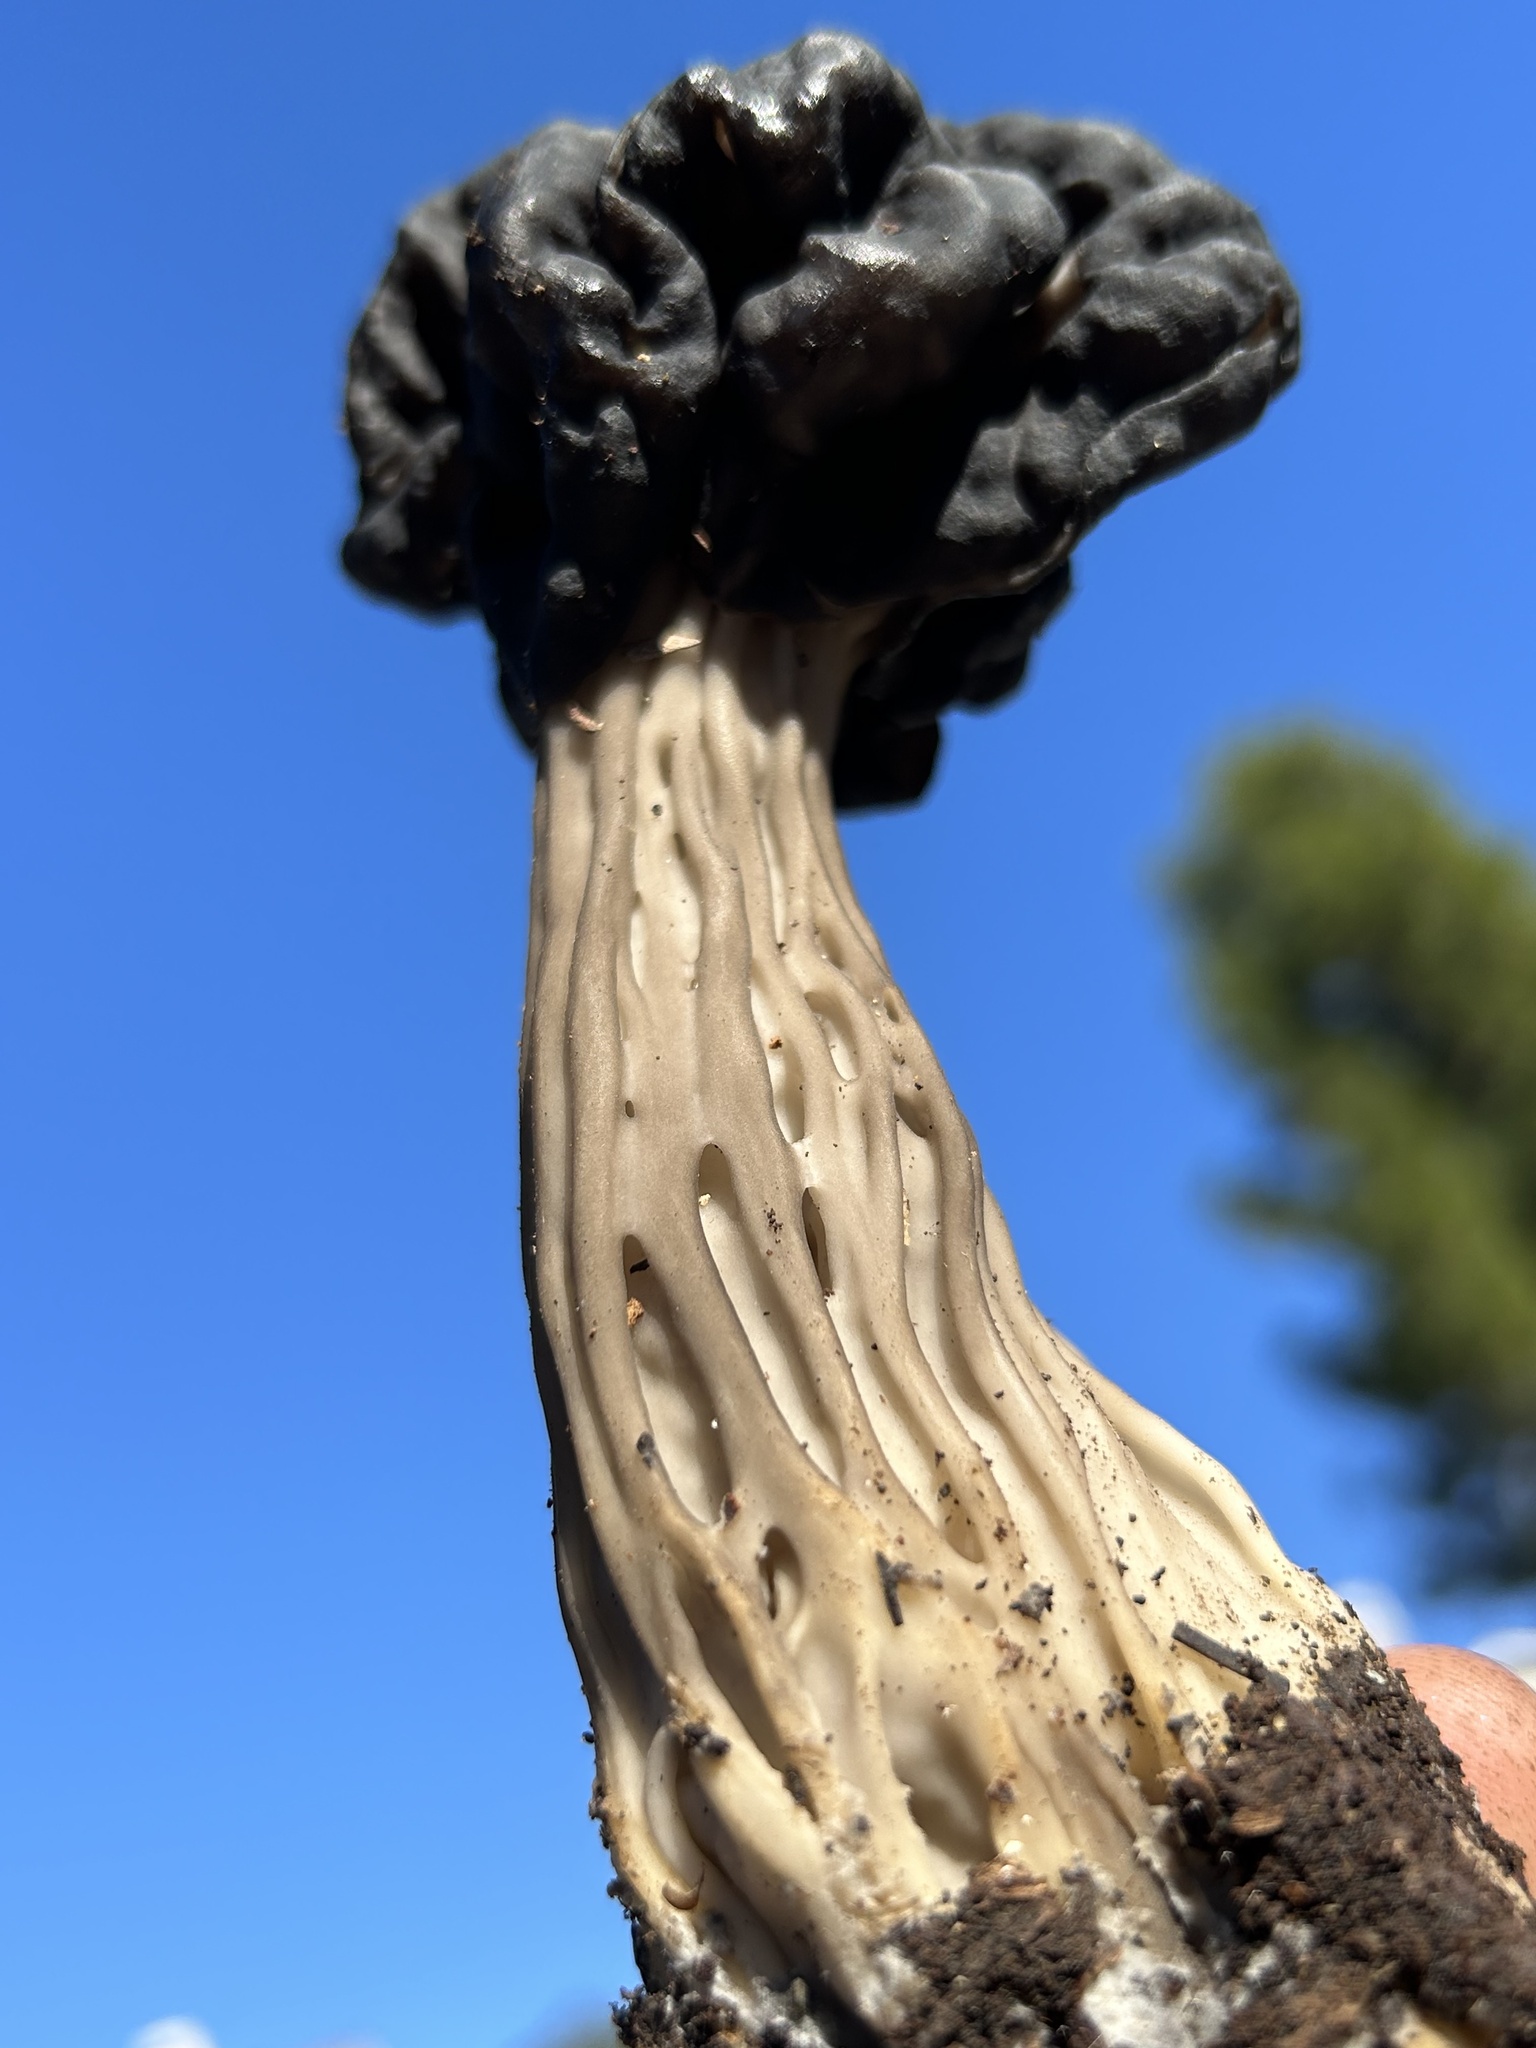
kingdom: Fungi
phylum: Ascomycota
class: Pezizomycetes
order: Pezizales
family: Helvellaceae
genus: Helvella
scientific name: Helvella dryophila
